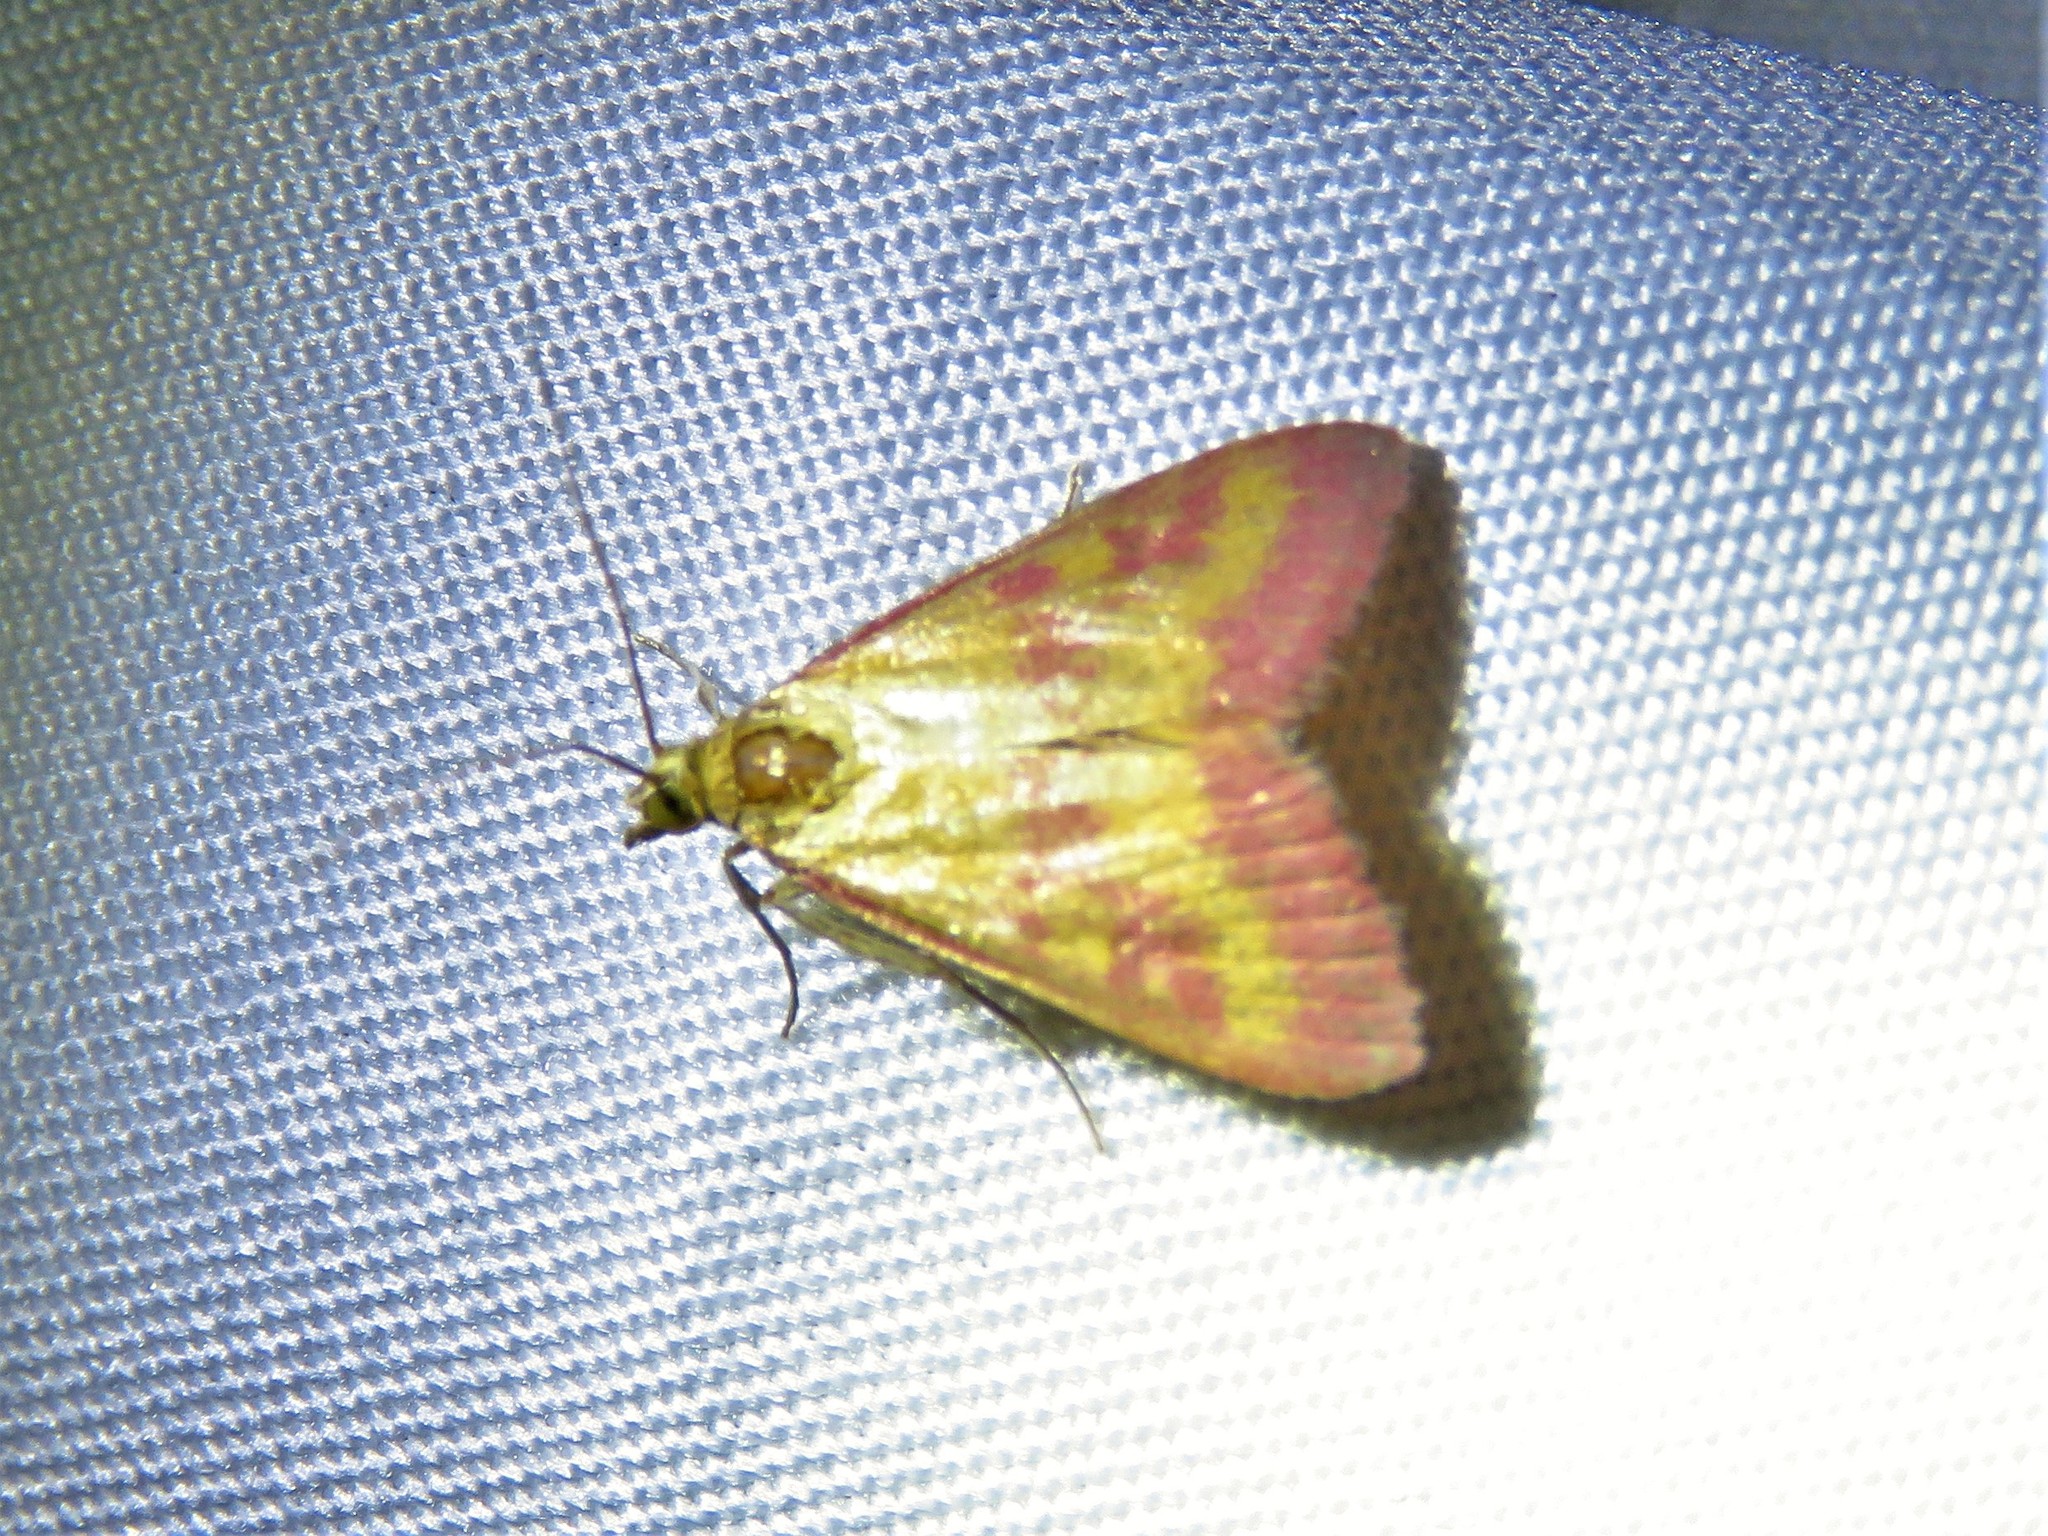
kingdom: Animalia
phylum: Arthropoda
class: Insecta
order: Lepidoptera
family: Crambidae
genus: Pyrausta
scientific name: Pyrausta laticlavia
